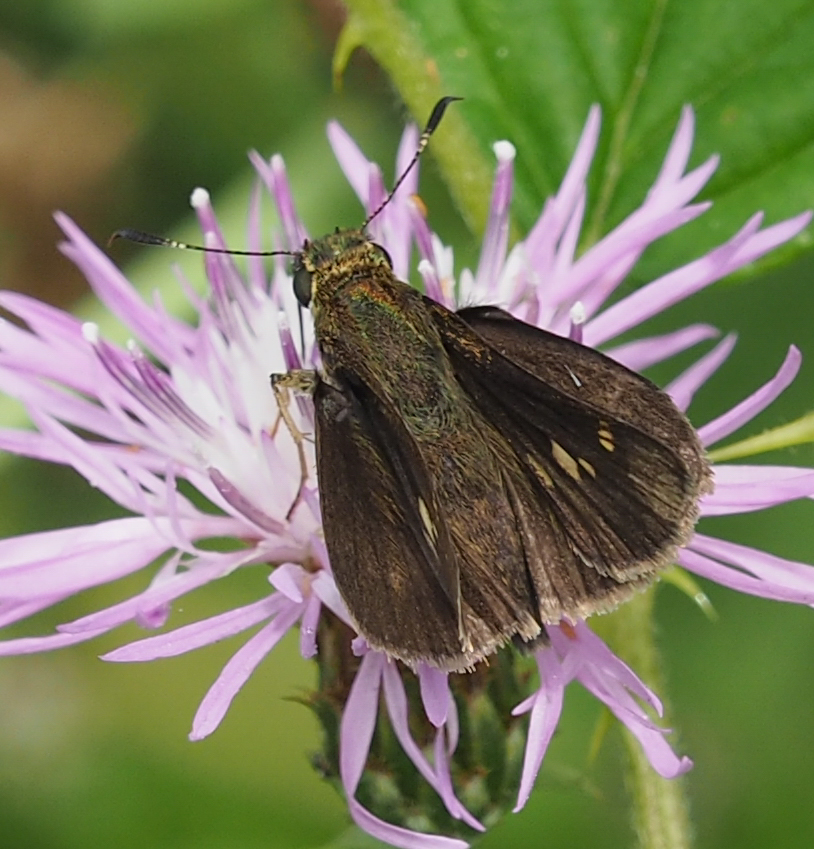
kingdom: Animalia
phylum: Arthropoda
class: Insecta
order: Lepidoptera
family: Hesperiidae
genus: Vernia
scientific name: Vernia verna
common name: Little glassywing
